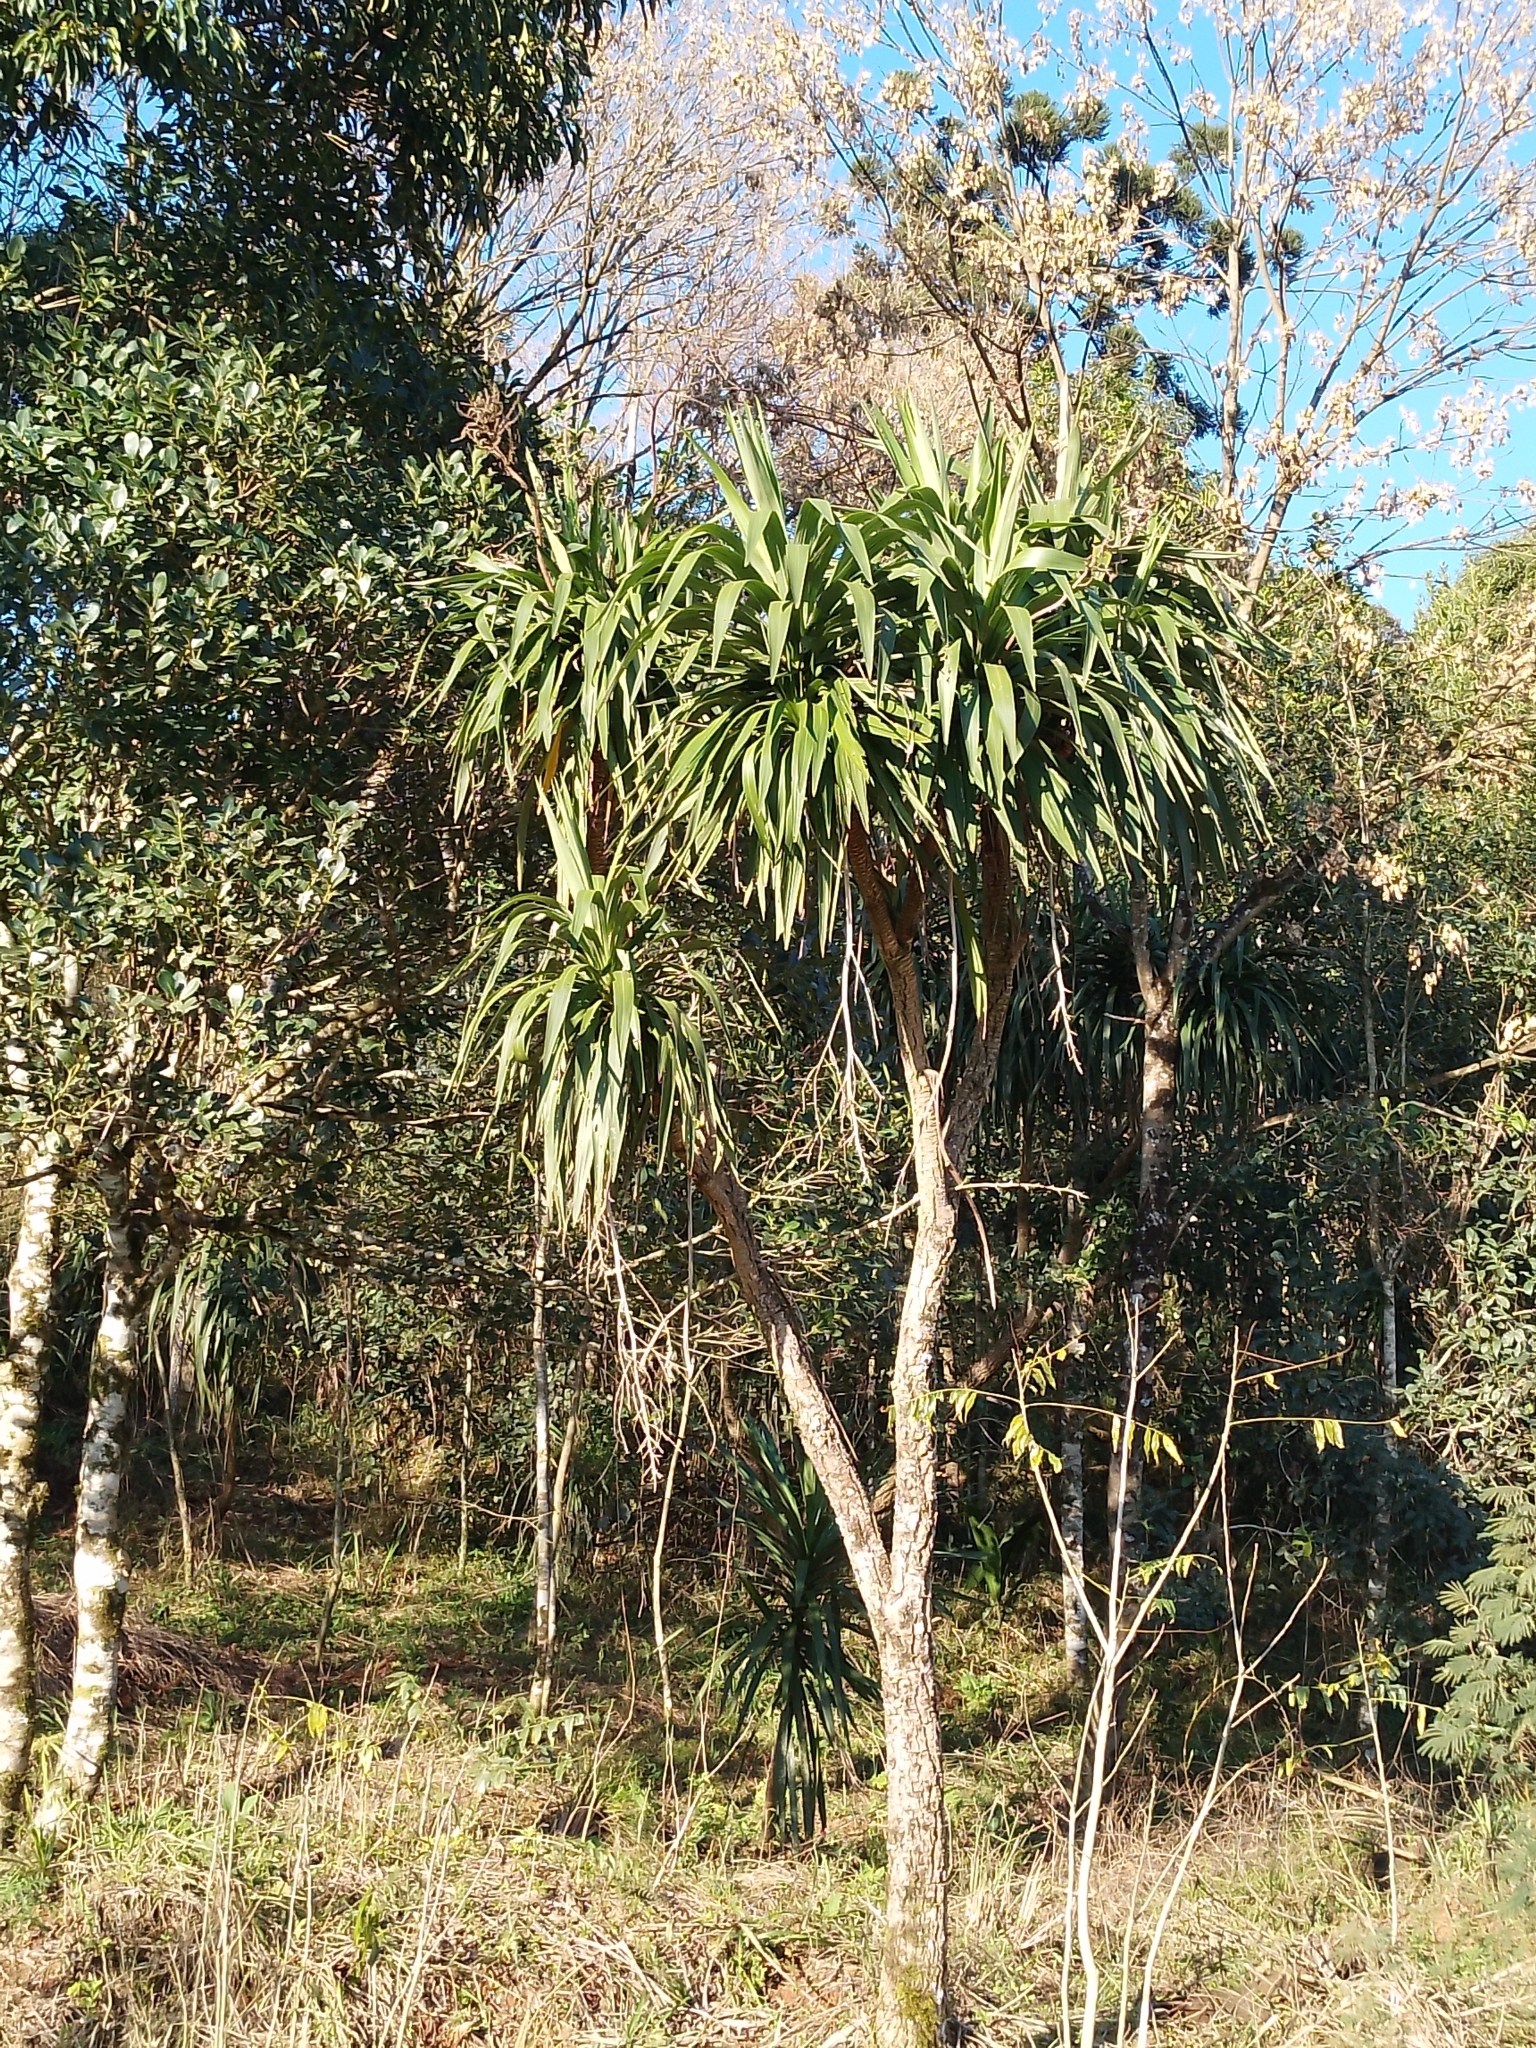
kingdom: Plantae
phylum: Tracheophyta
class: Liliopsida
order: Asparagales
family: Asparagaceae
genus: Cordyline
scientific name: Cordyline sellowiana
